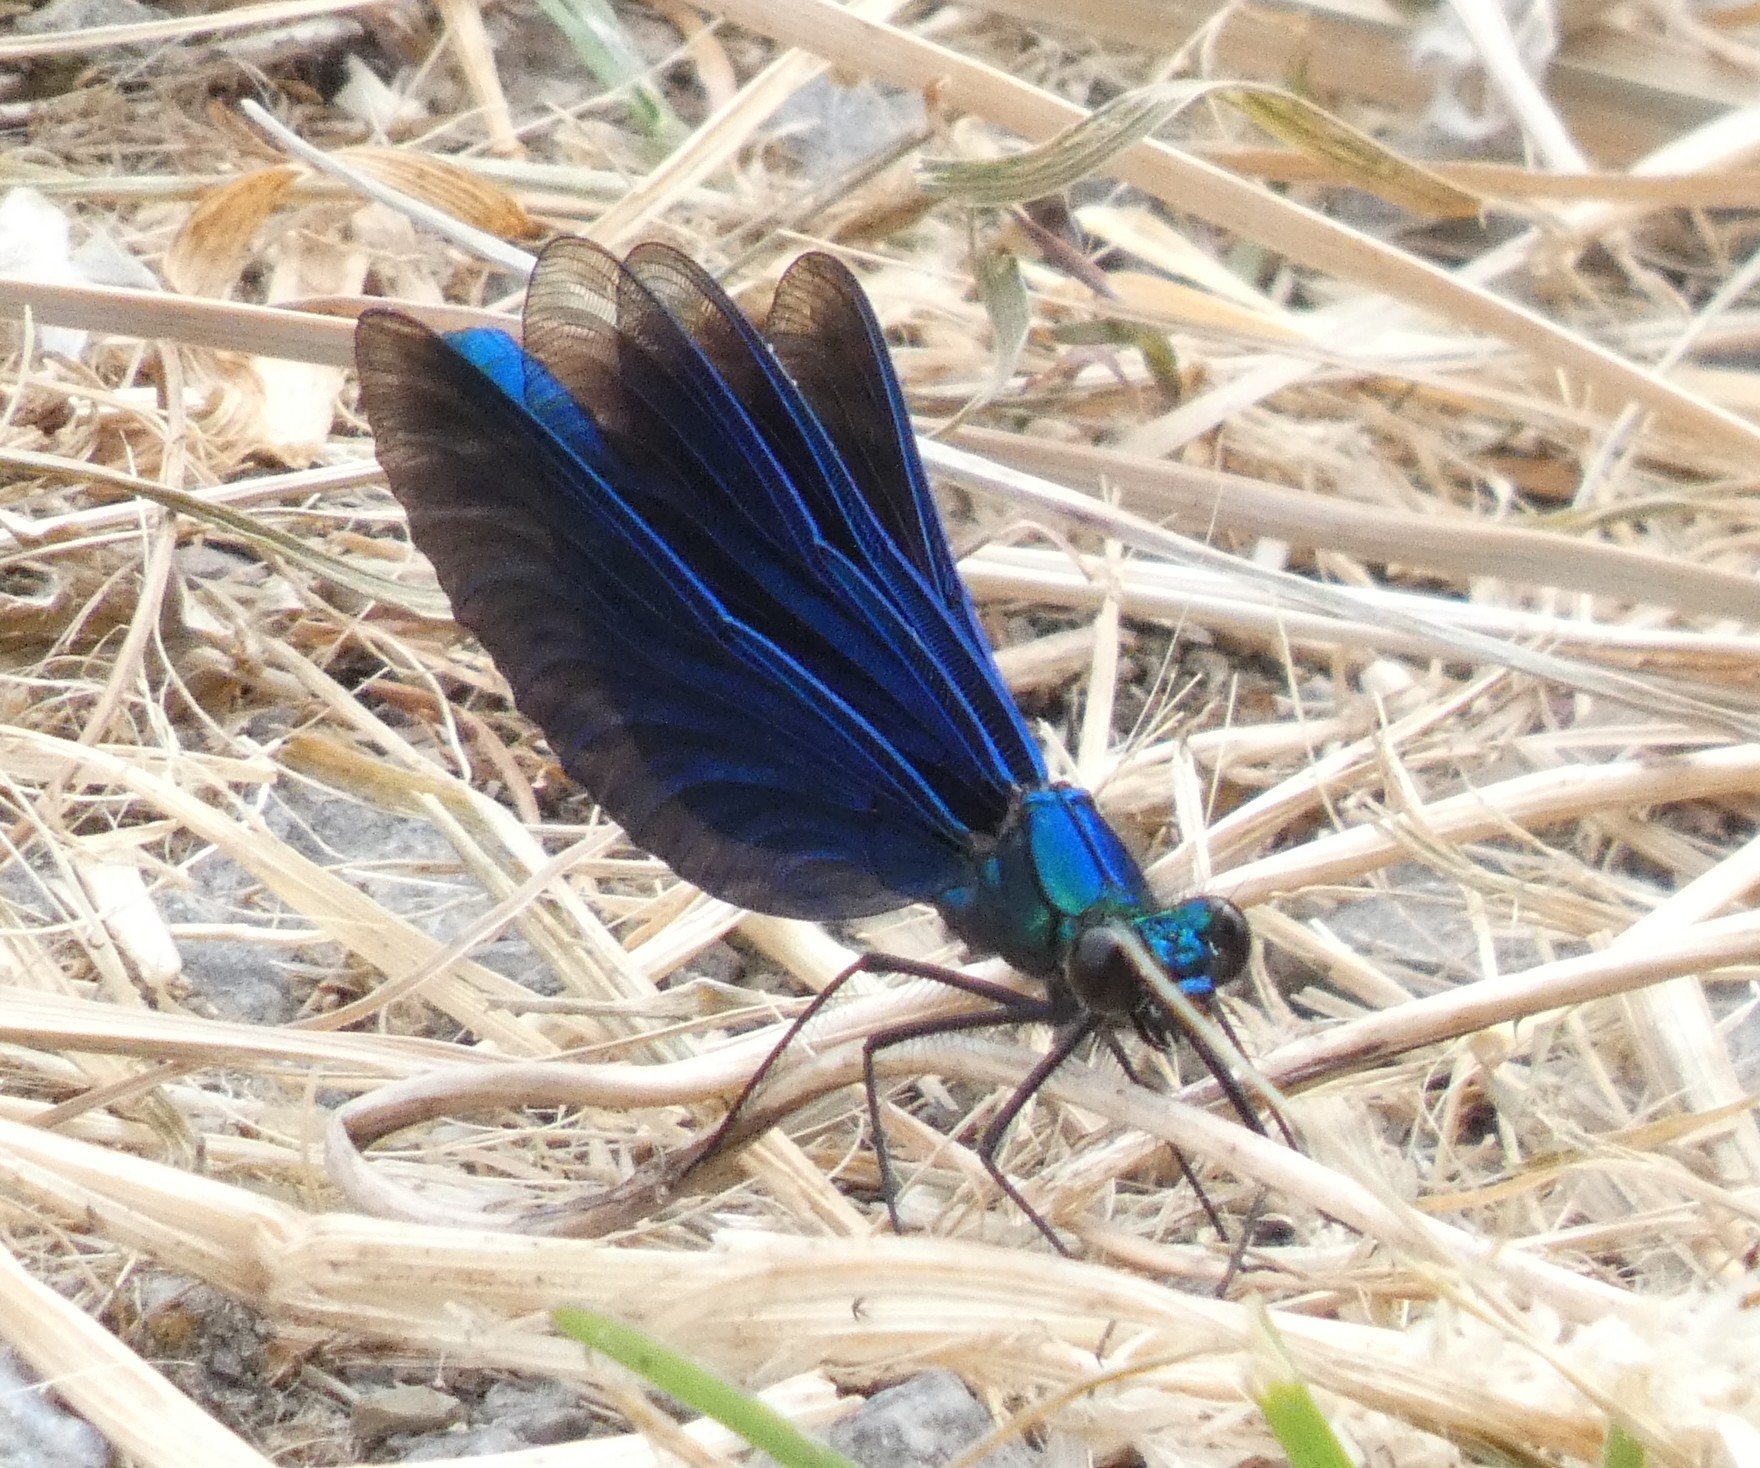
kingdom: Animalia
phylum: Arthropoda
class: Insecta
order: Odonata
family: Calopterygidae
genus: Calopteryx
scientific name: Calopteryx virgo
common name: Beautiful demoiselle
